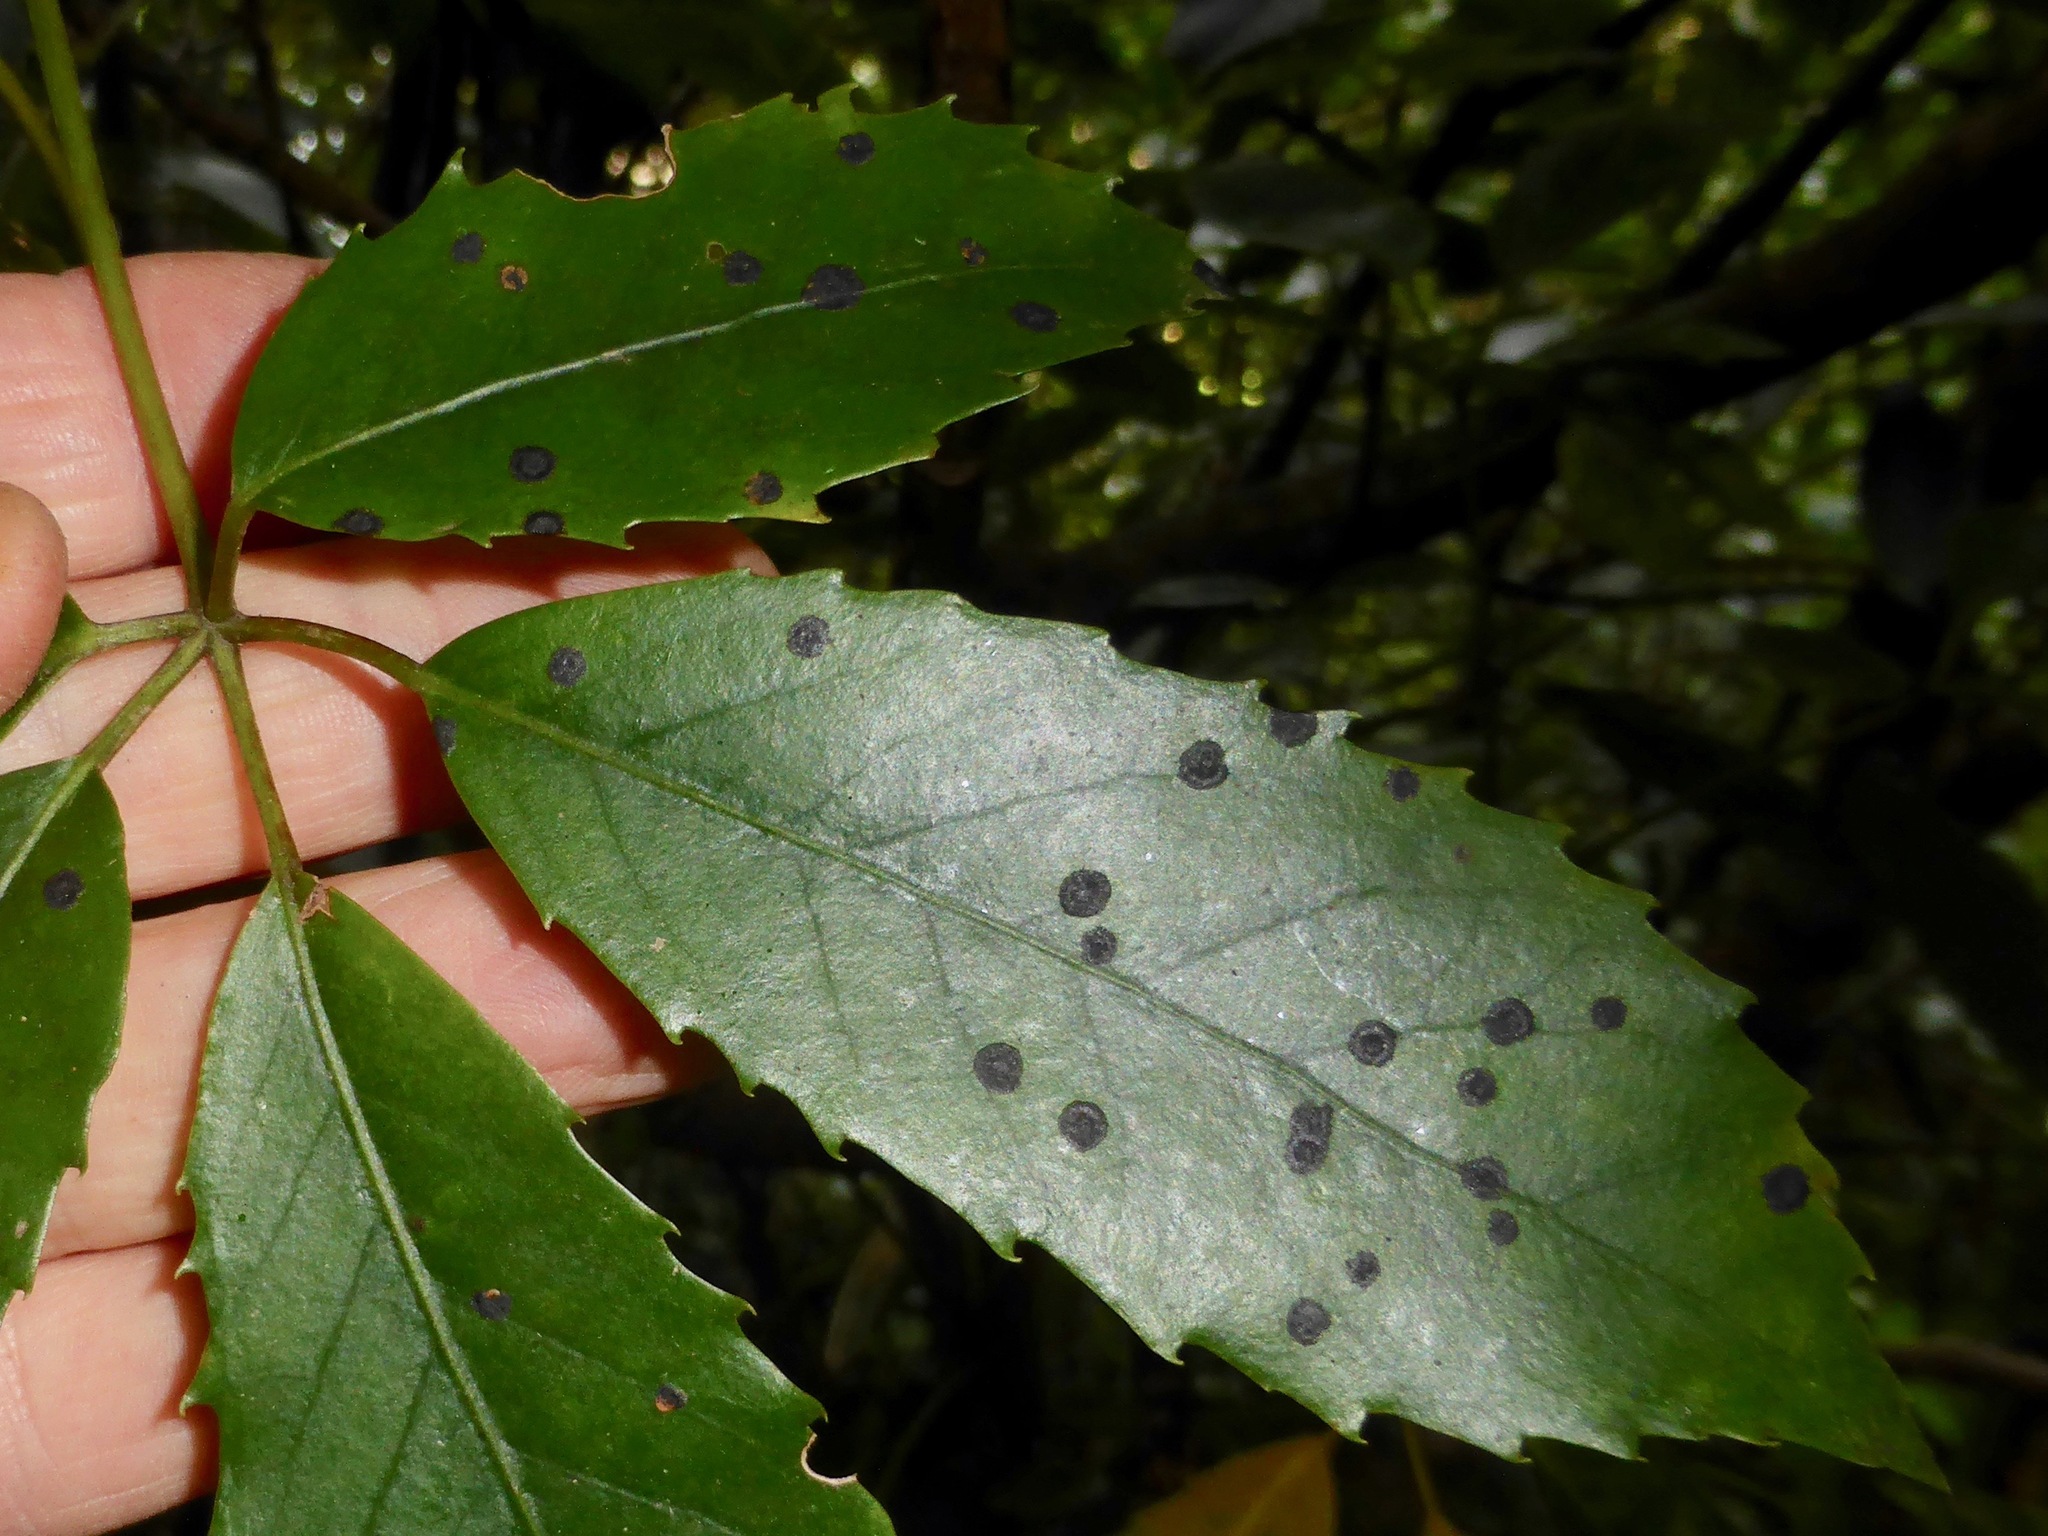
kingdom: Fungi
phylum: Ascomycota
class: Dothideomycetes
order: Asterinales
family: Asterinaceae
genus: Placosoma
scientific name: Placosoma nothopanacis
